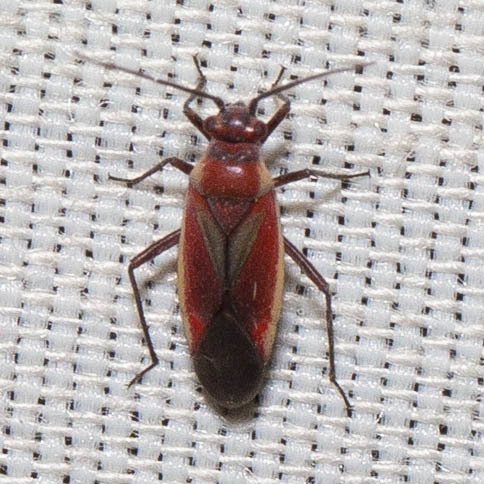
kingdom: Animalia
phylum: Arthropoda
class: Insecta
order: Hemiptera
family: Miridae
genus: Lopidea
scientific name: Lopidea marginata
